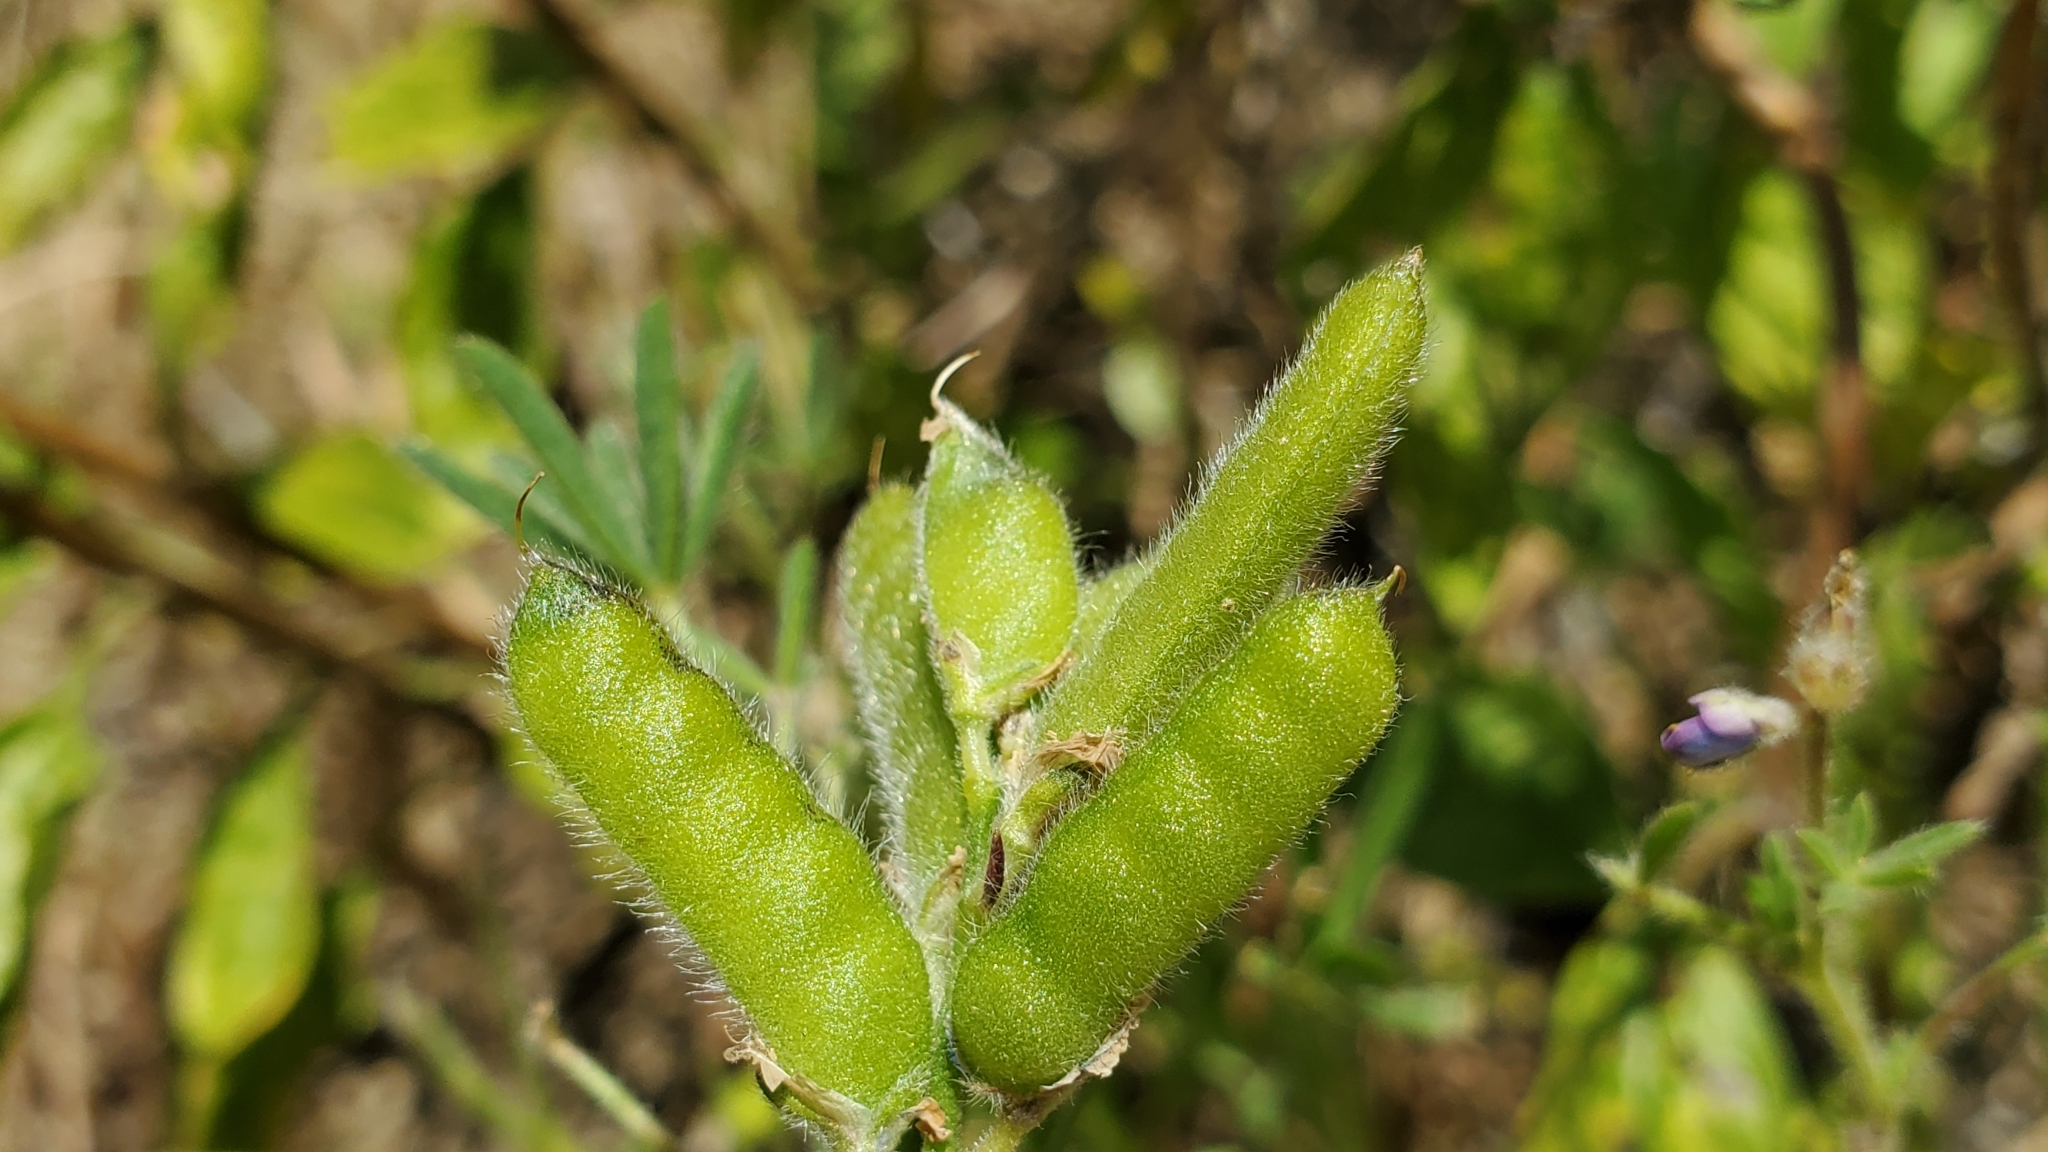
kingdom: Plantae
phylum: Tracheophyta
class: Magnoliopsida
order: Fabales
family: Fabaceae
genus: Lupinus
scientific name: Lupinus bicolor
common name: Miniature lupine
